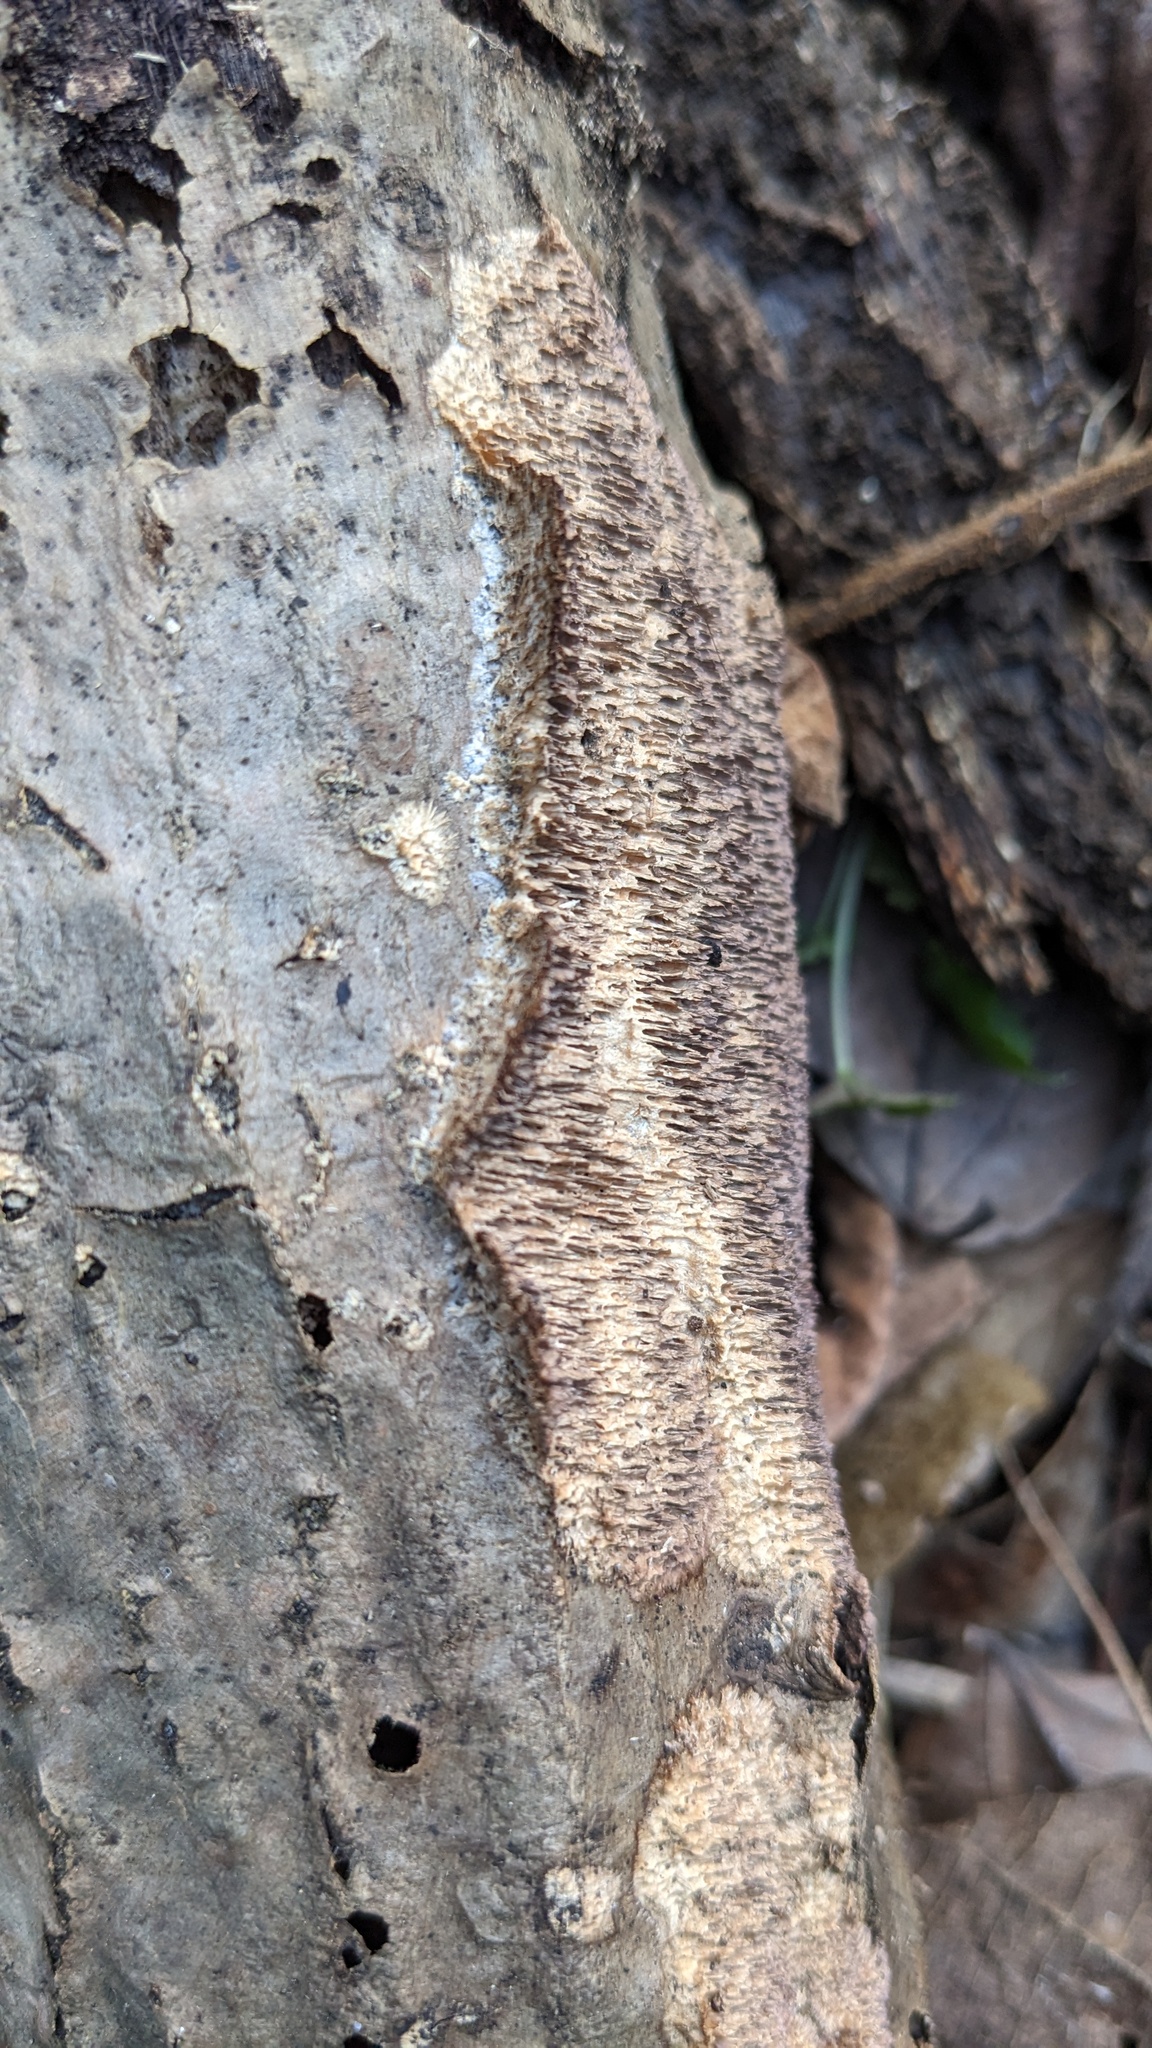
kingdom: Fungi
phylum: Basidiomycota
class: Agaricomycetes
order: Hymenochaetales
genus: Trichaptum
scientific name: Trichaptum byssogenum
